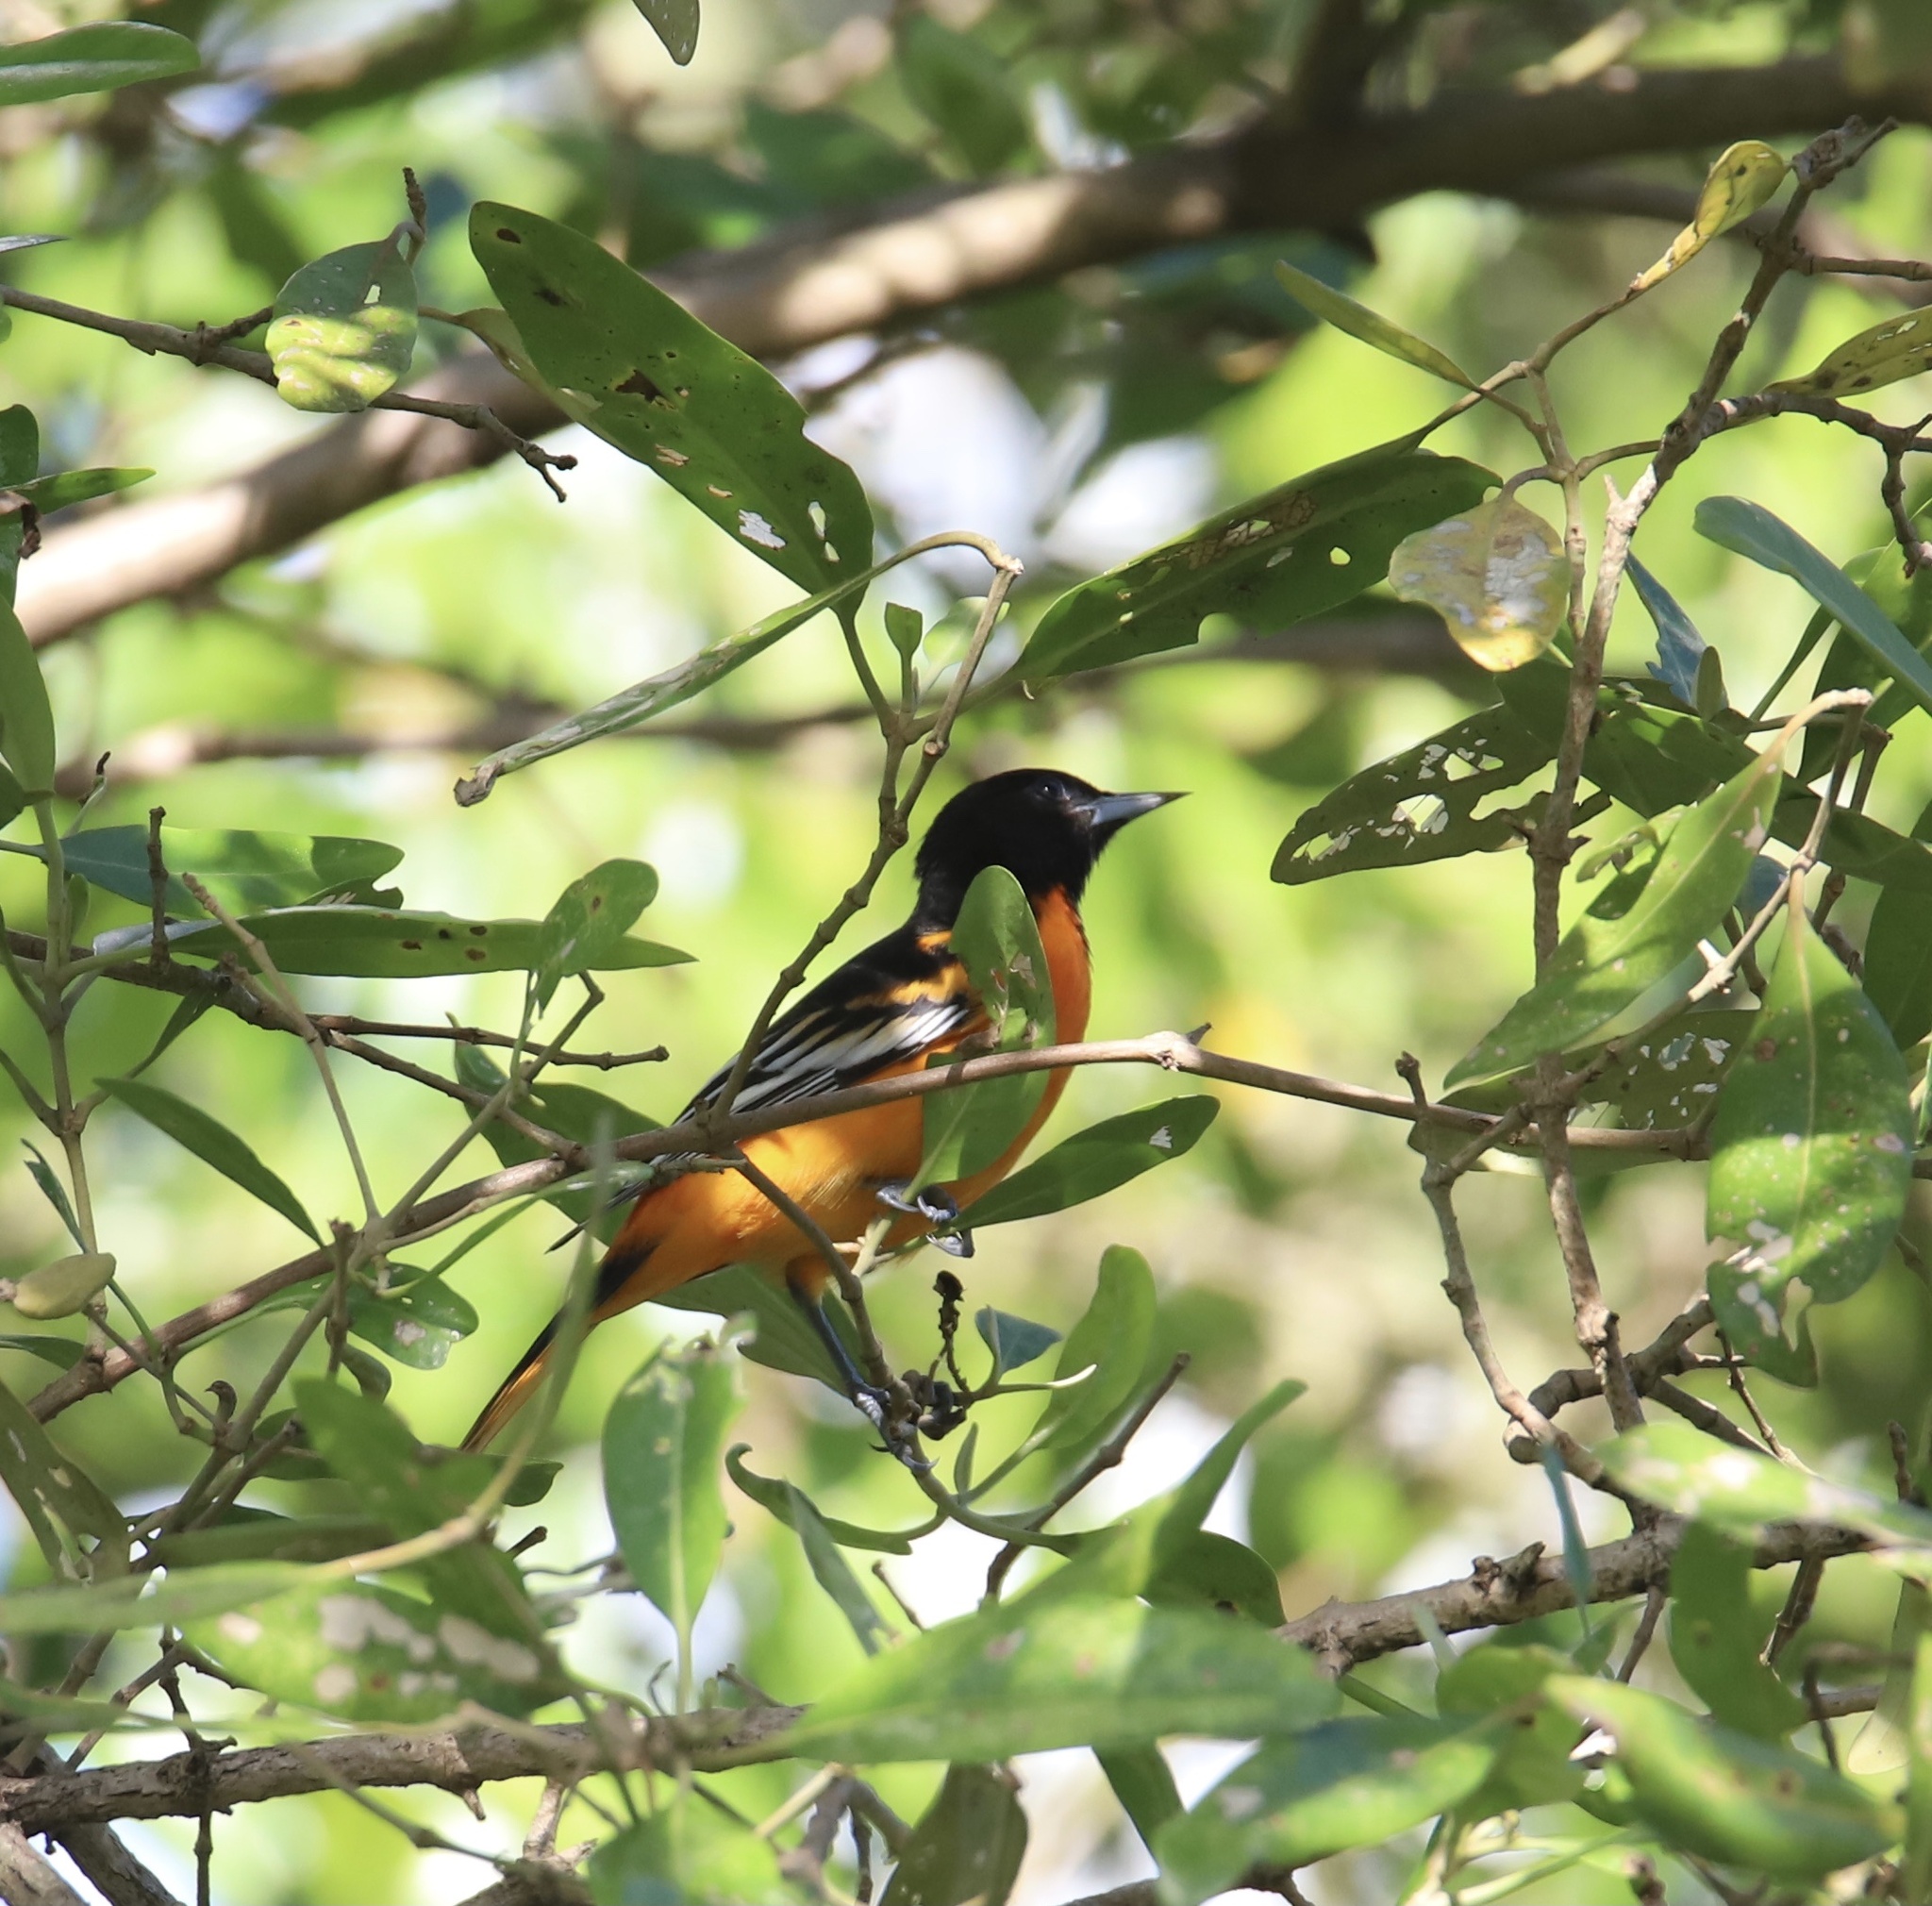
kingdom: Animalia
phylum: Chordata
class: Aves
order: Passeriformes
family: Icteridae
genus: Icterus
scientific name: Icterus galbula
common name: Baltimore oriole
